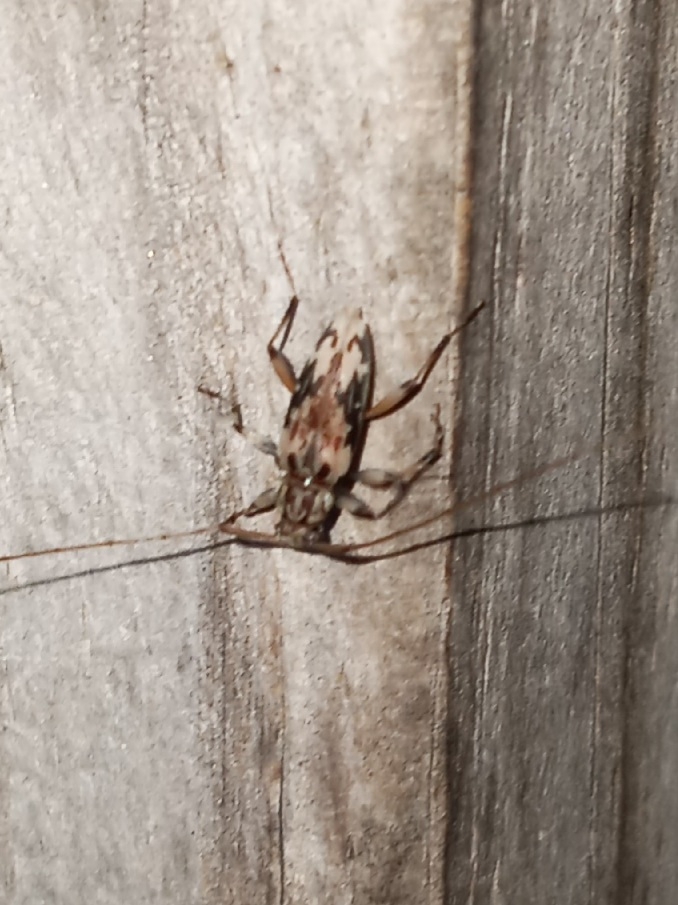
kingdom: Animalia
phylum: Arthropoda
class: Insecta
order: Coleoptera
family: Cerambycidae
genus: Lepturges
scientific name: Lepturges angulatus
